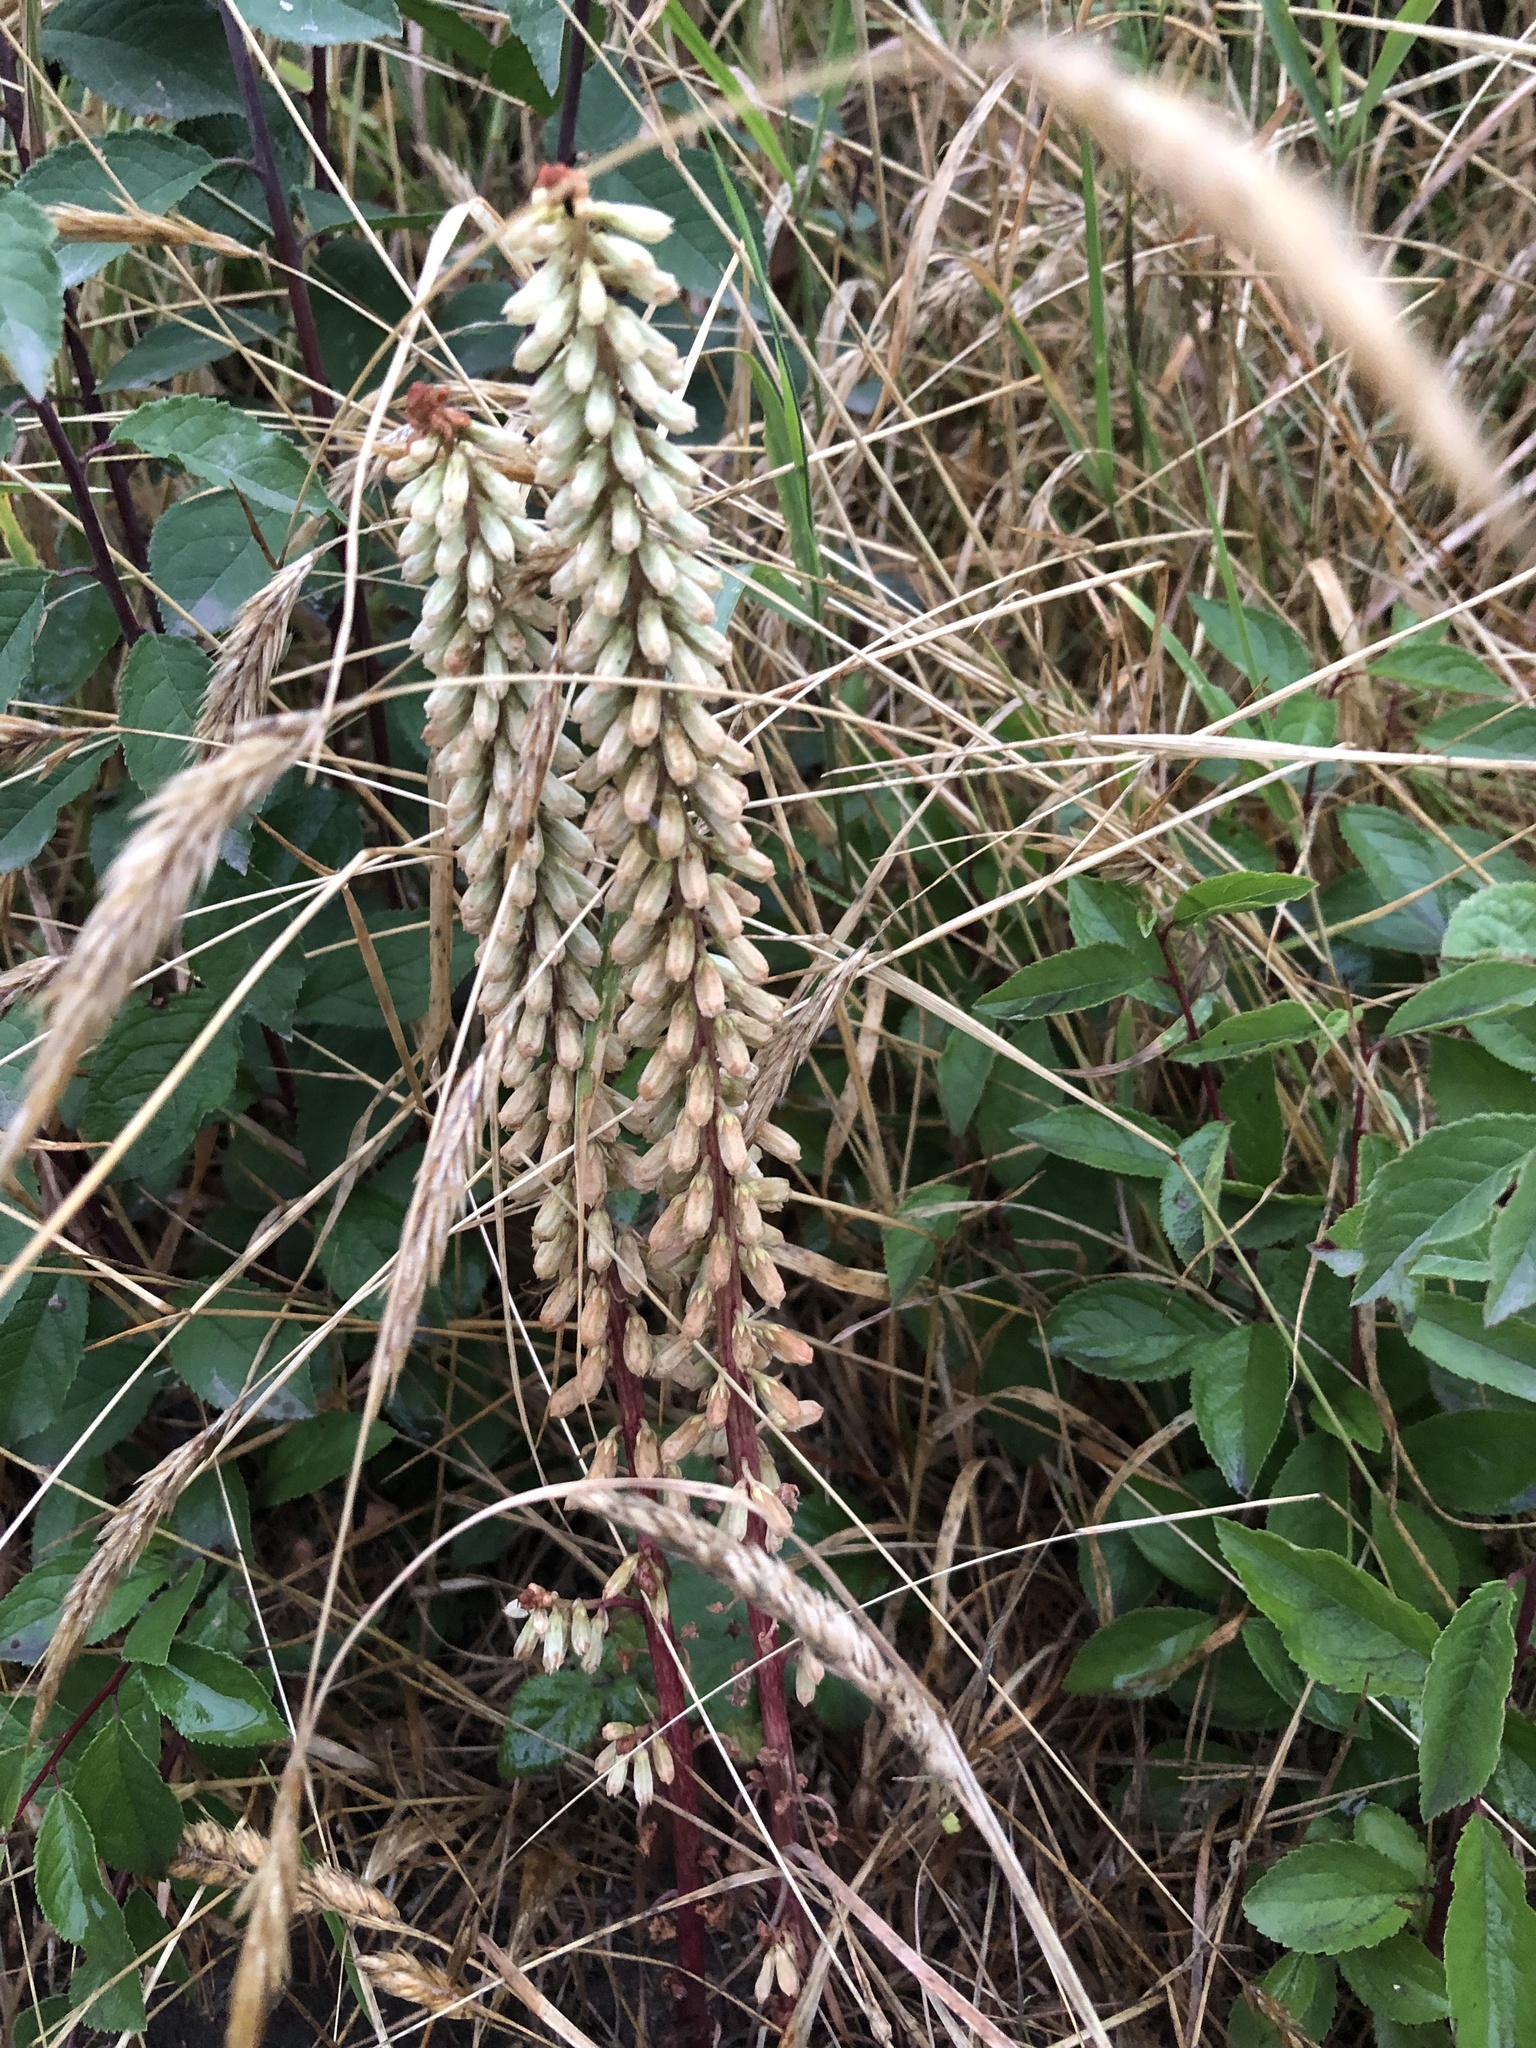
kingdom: Plantae
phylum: Tracheophyta
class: Magnoliopsida
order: Saxifragales
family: Crassulaceae
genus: Umbilicus
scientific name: Umbilicus rupestris
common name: Navelwort
